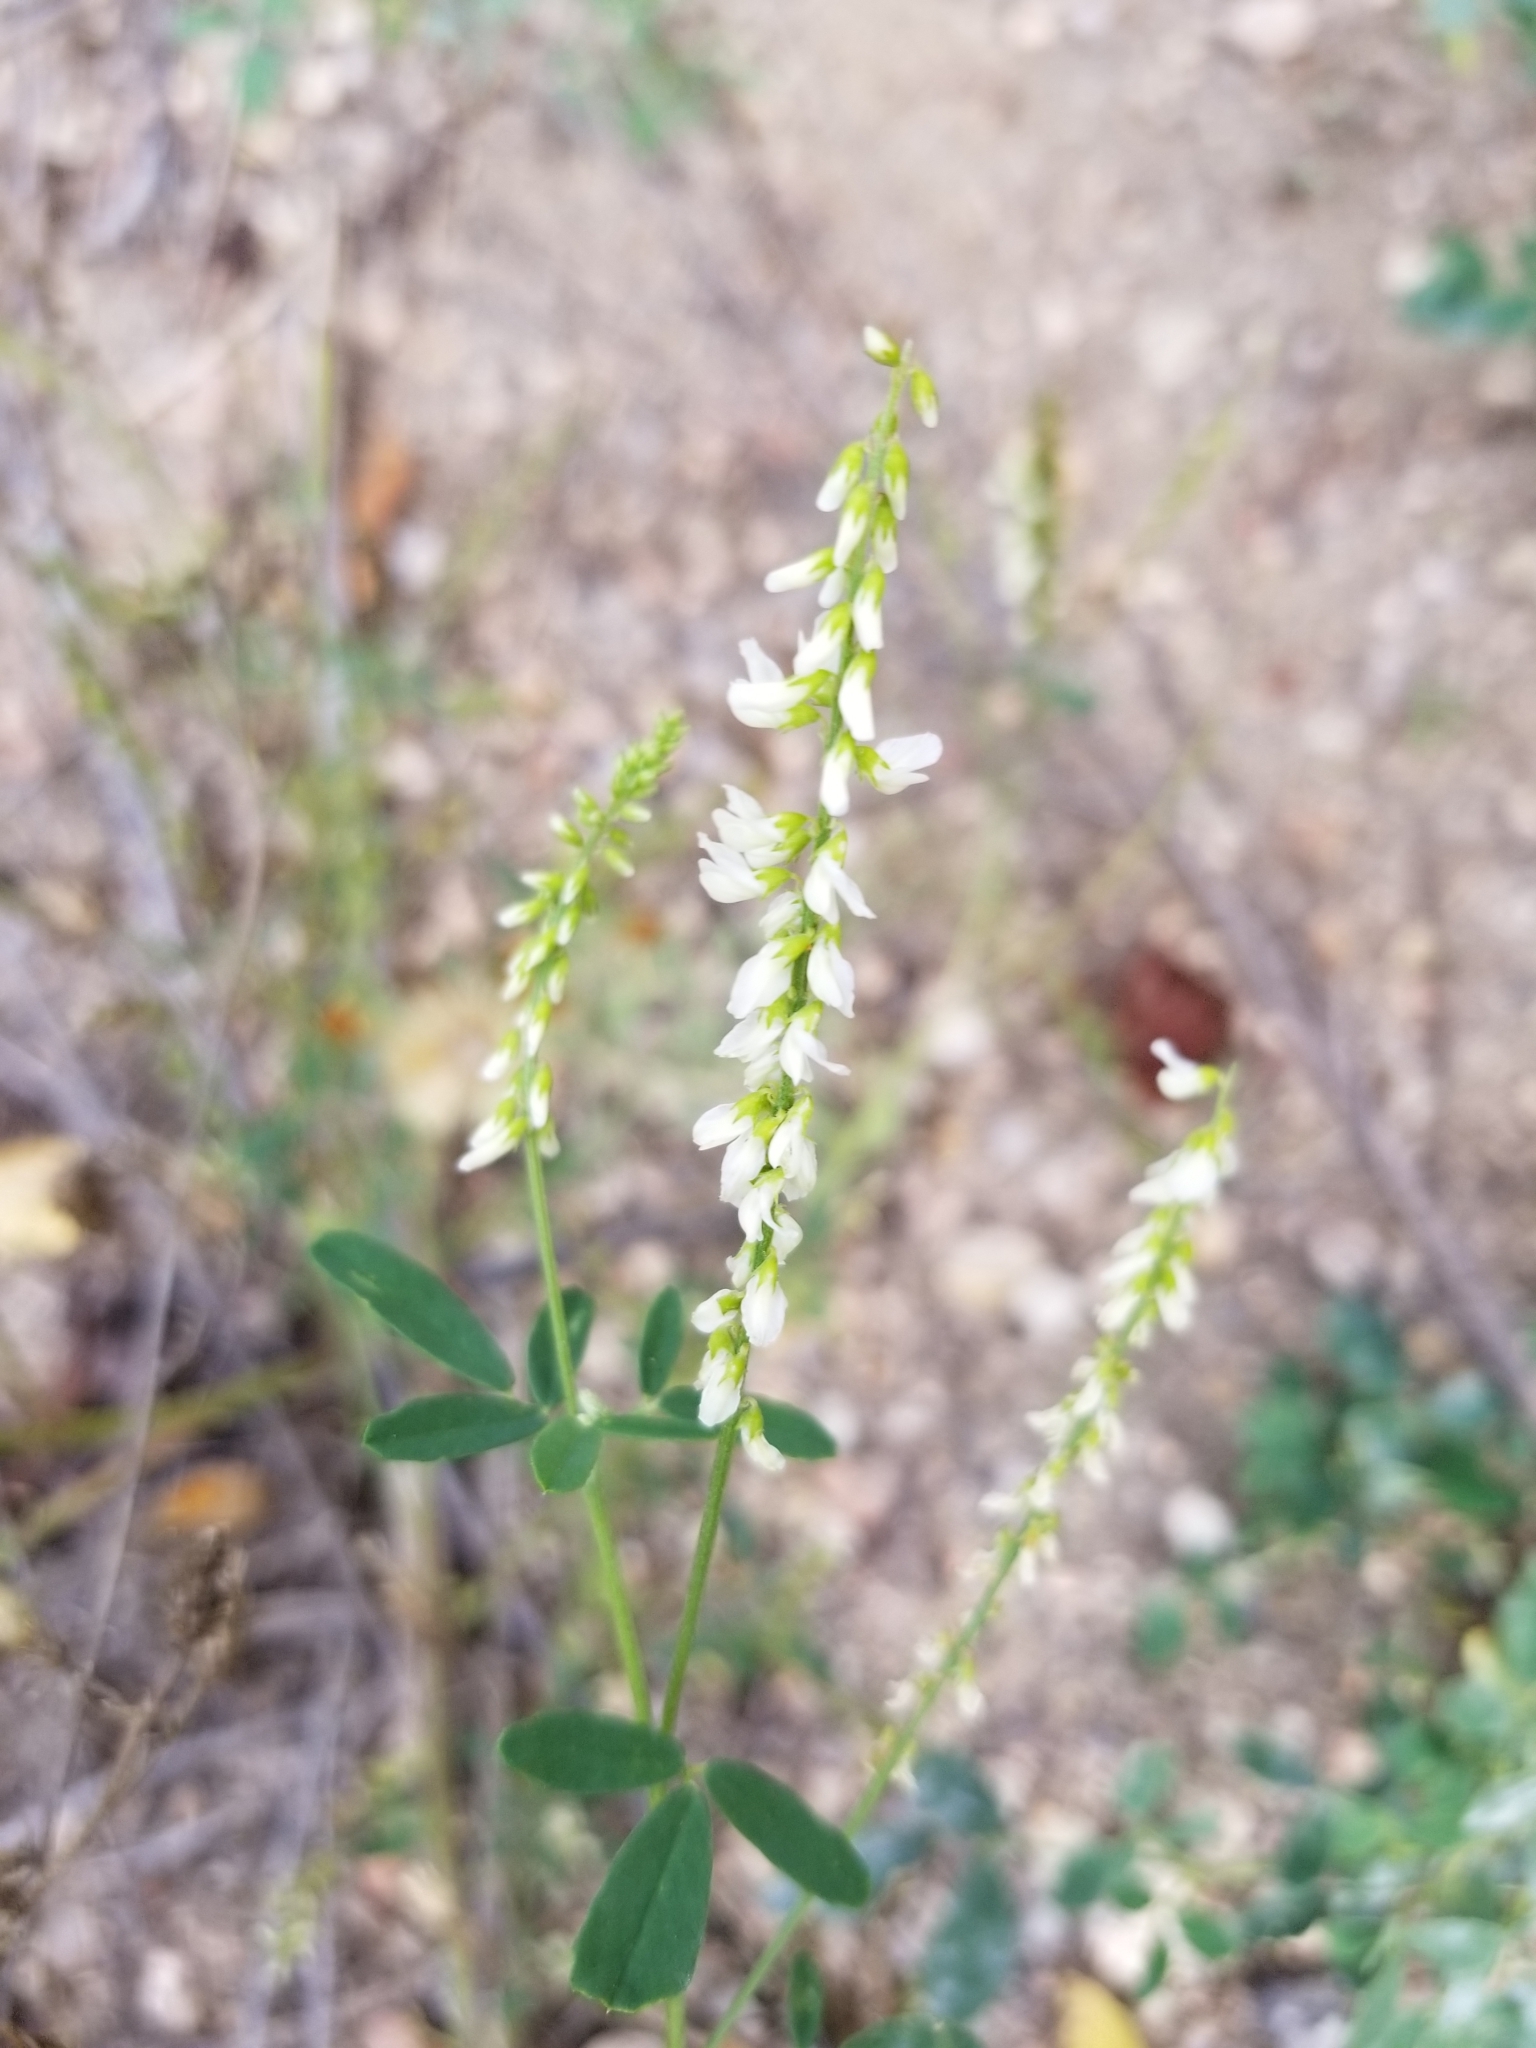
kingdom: Plantae
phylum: Tracheophyta
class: Magnoliopsida
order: Fabales
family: Fabaceae
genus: Melilotus
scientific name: Melilotus albus
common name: White melilot
